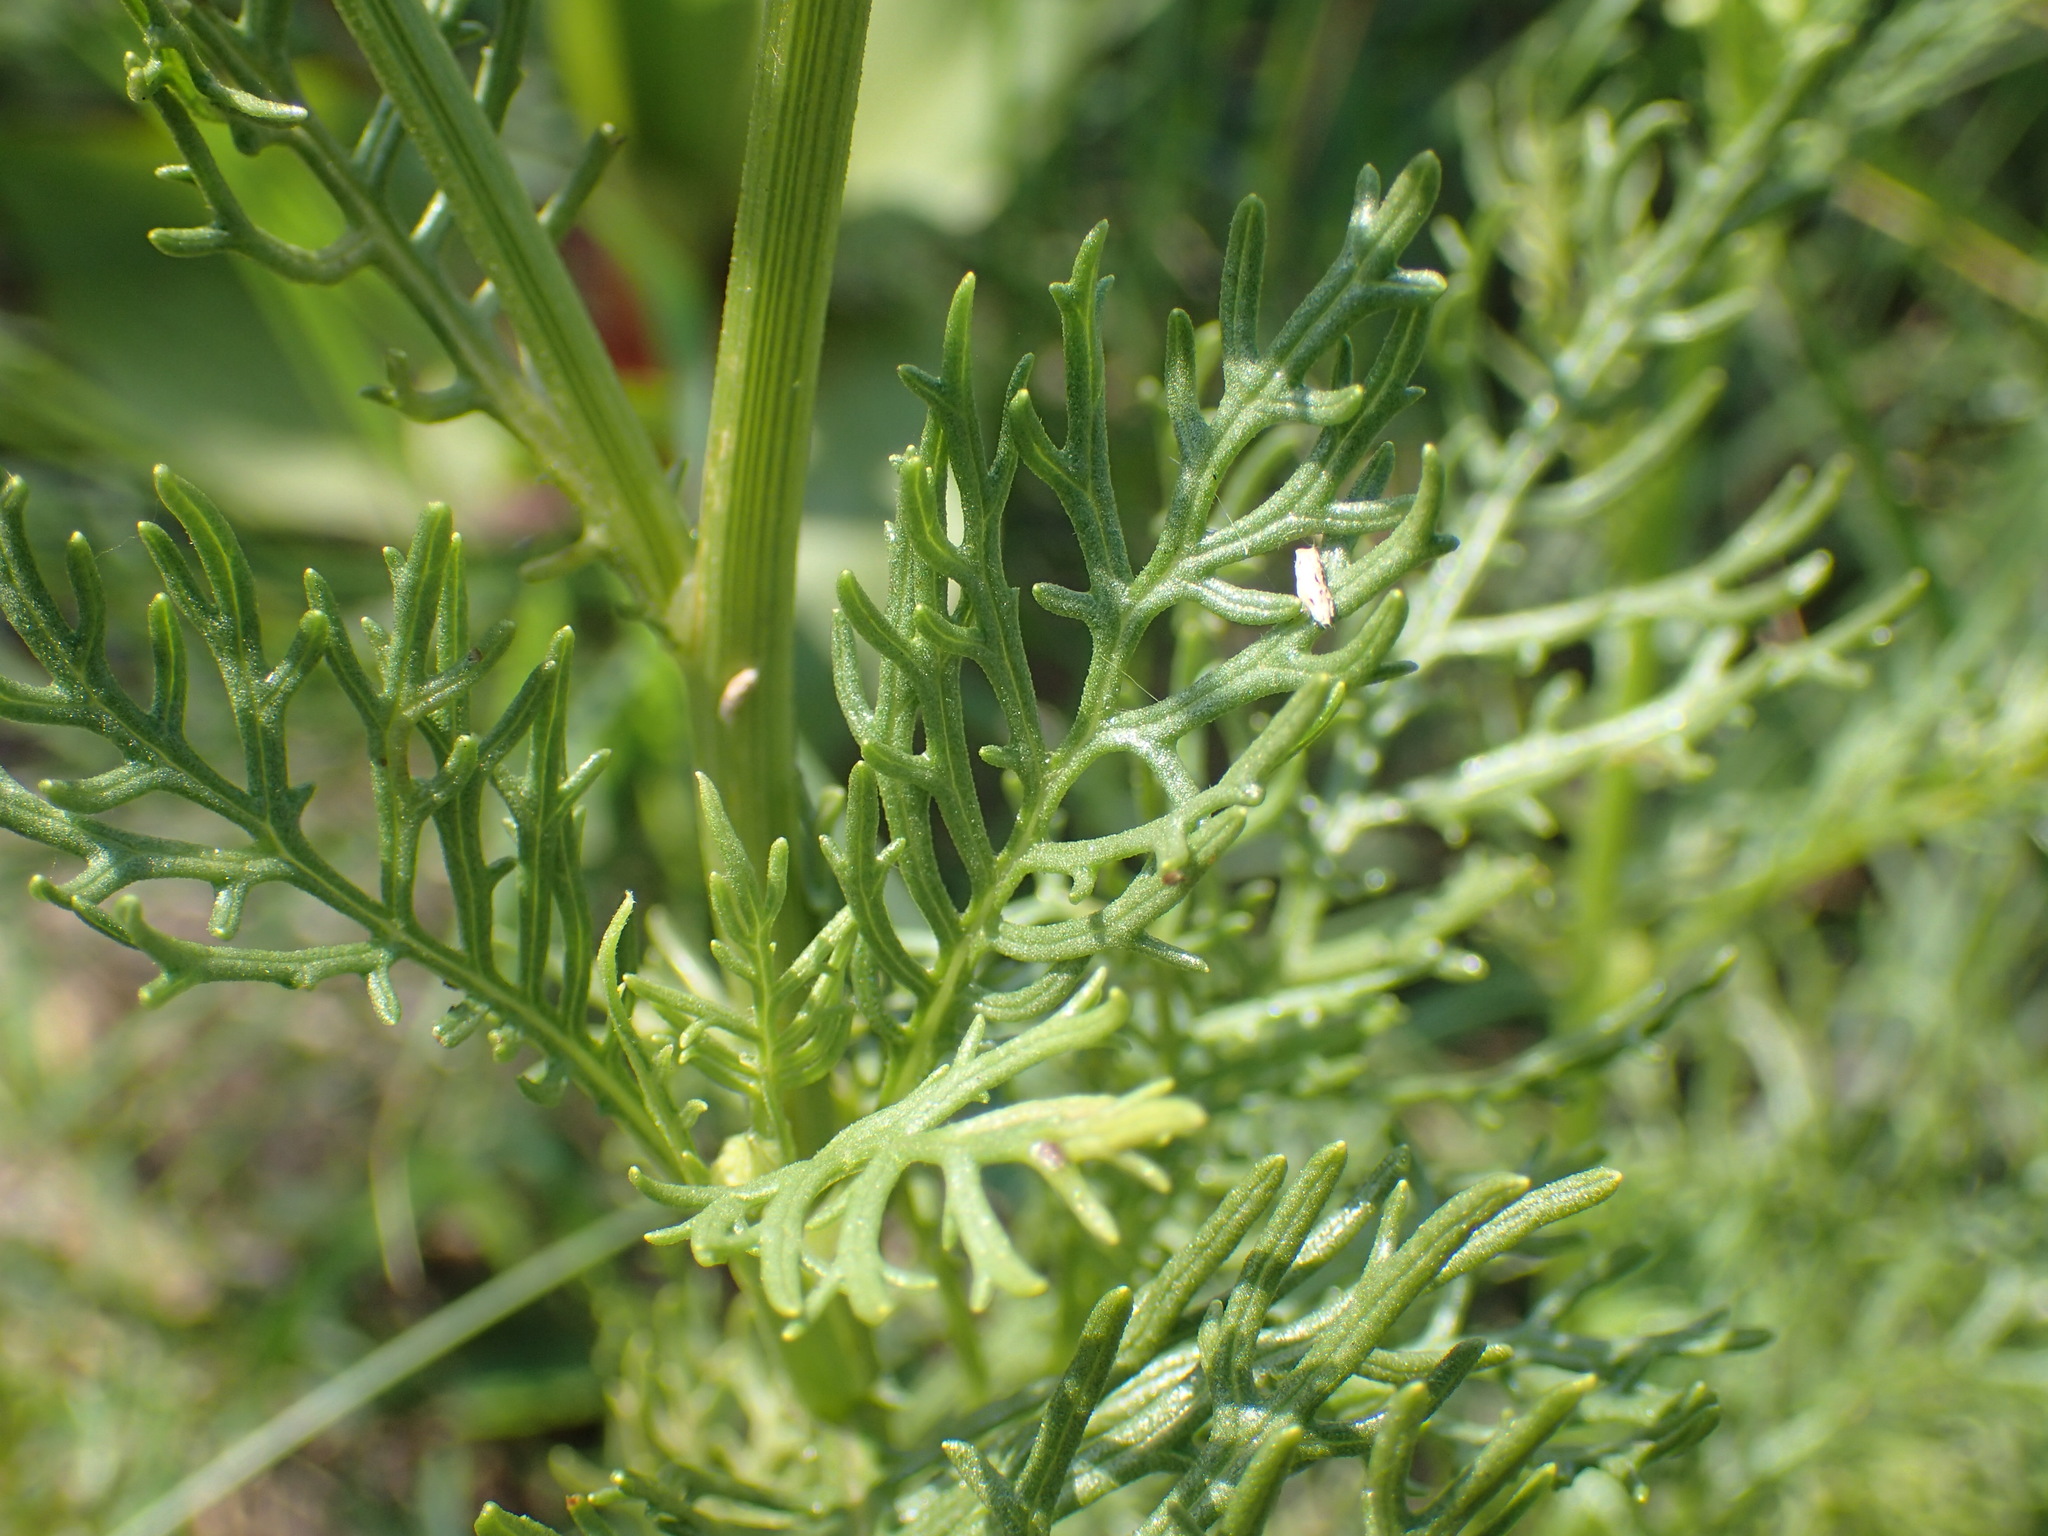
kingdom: Plantae
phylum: Tracheophyta
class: Magnoliopsida
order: Asterales
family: Asteraceae
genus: Senecio
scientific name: Senecio rhyncholaenus
